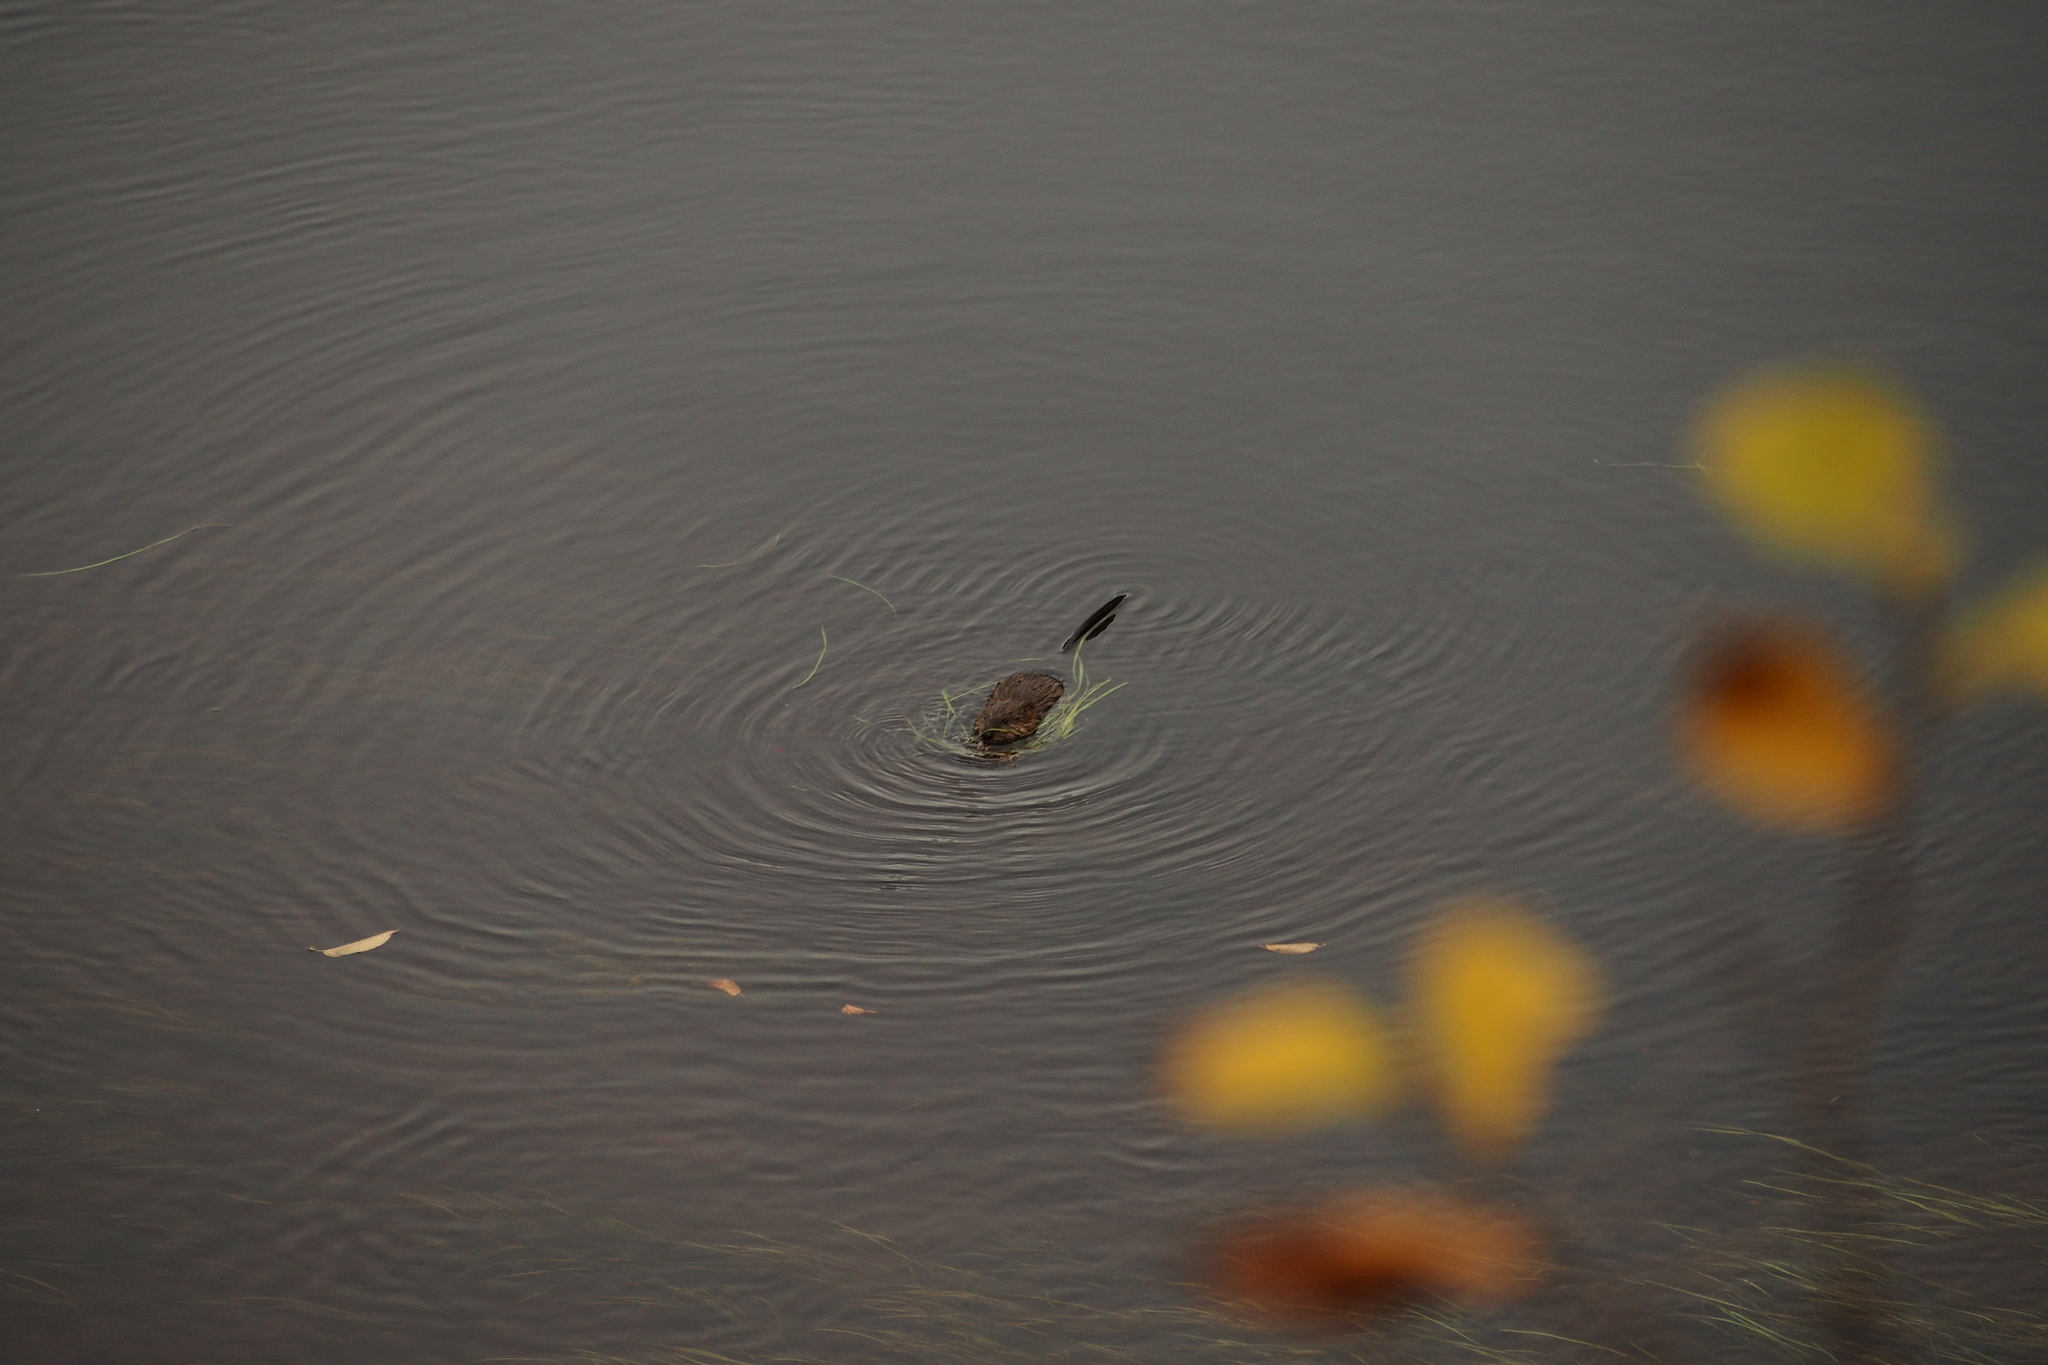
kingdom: Animalia
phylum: Chordata
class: Mammalia
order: Rodentia
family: Cricetidae
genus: Ondatra
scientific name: Ondatra zibethicus
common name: Muskrat
